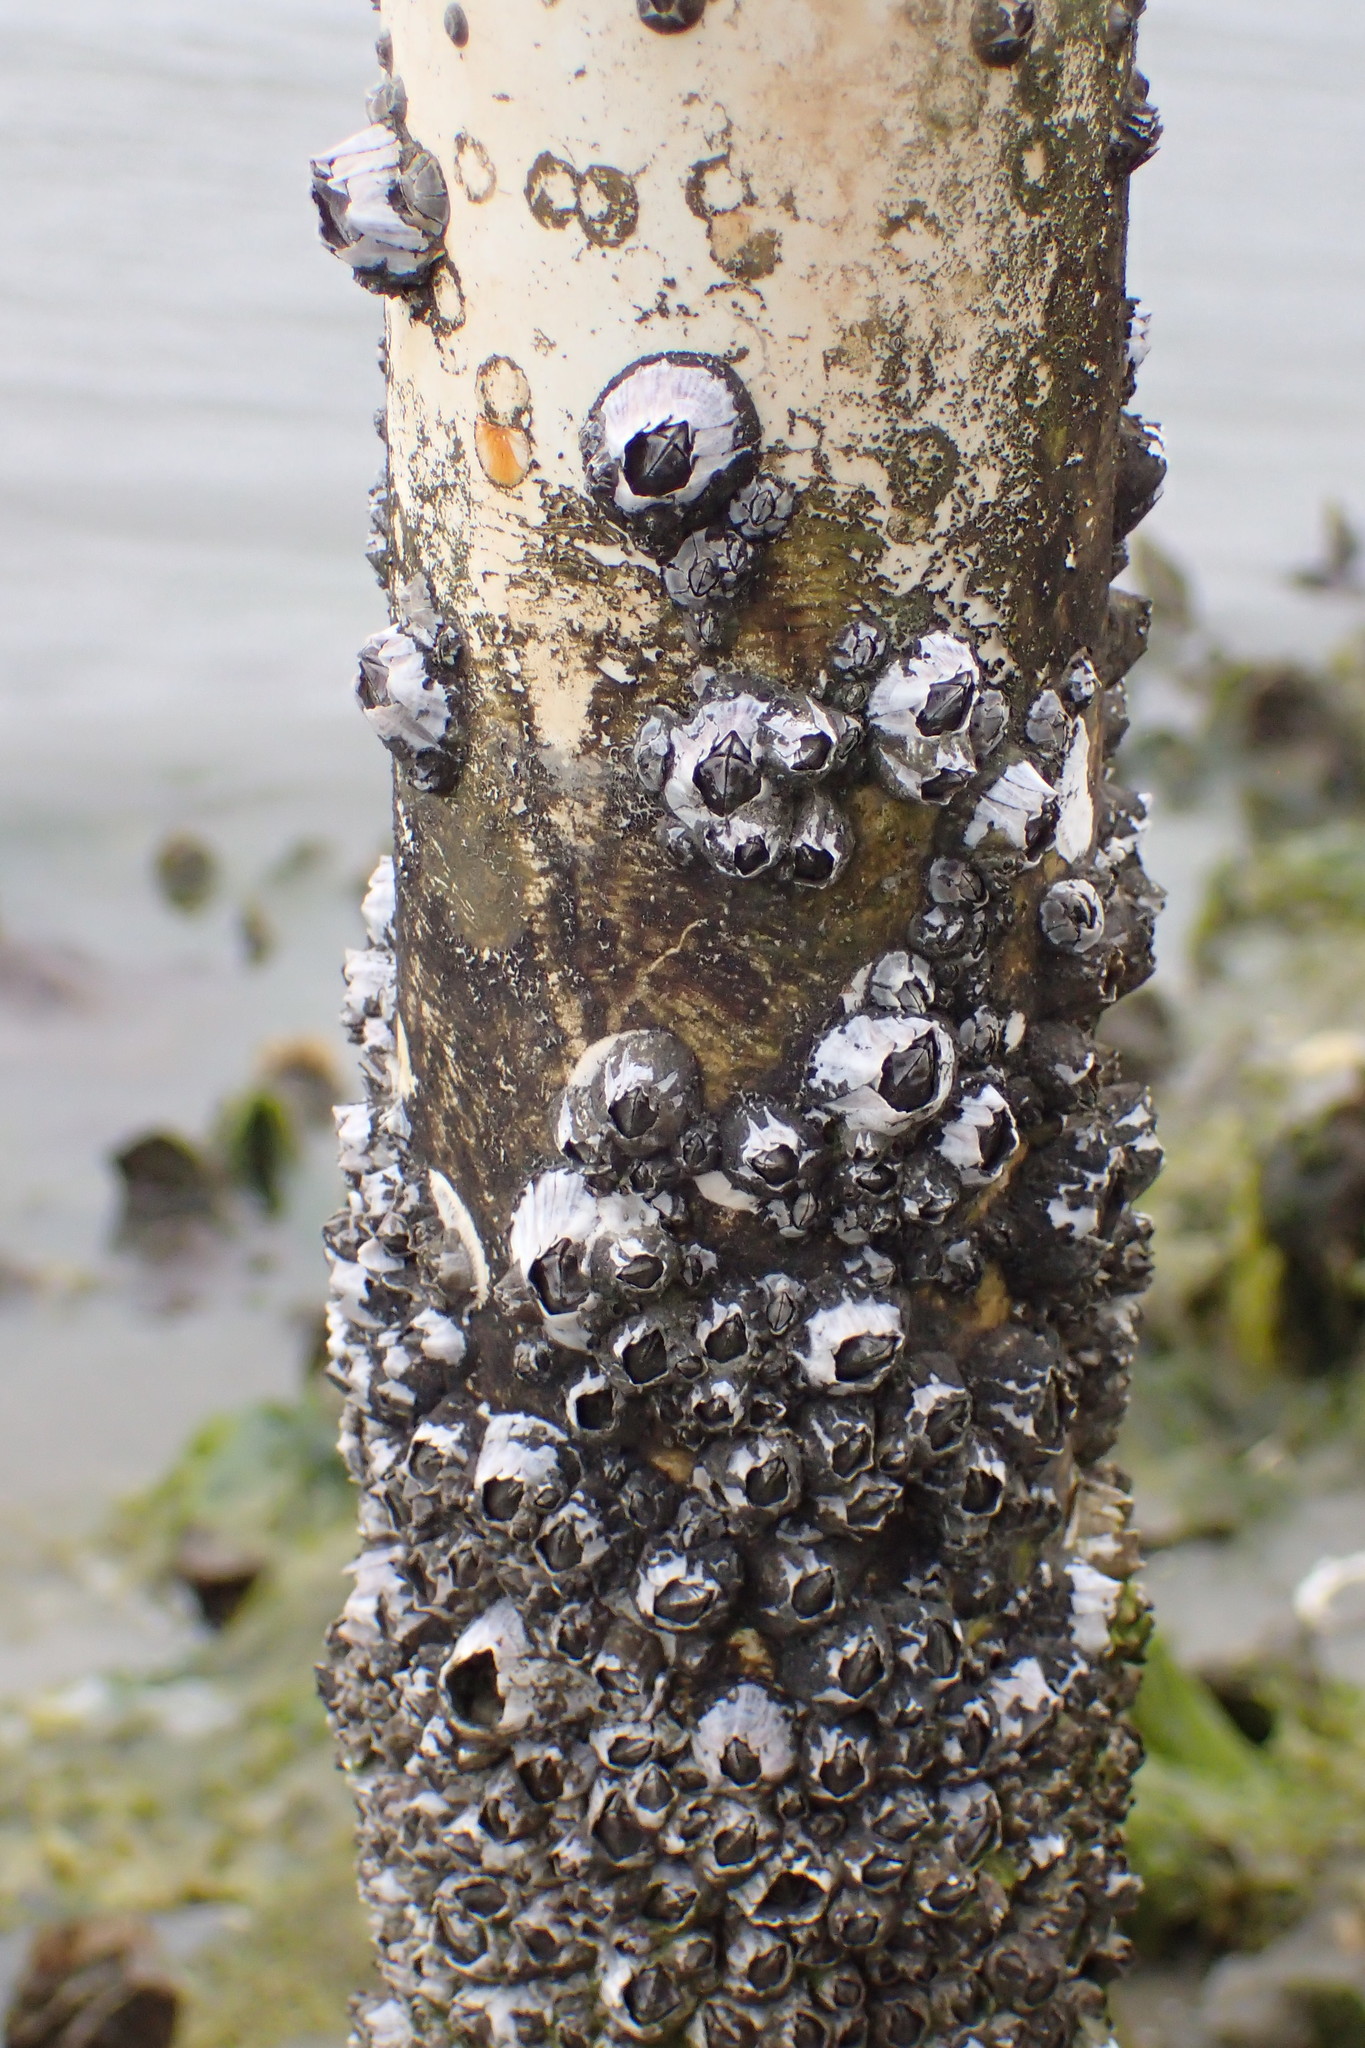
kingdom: Animalia
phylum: Arthropoda
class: Maxillopoda
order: Sessilia
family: Balanidae
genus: Amphibalanus
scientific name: Amphibalanus amphitrite
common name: Striped acorn barnacle
